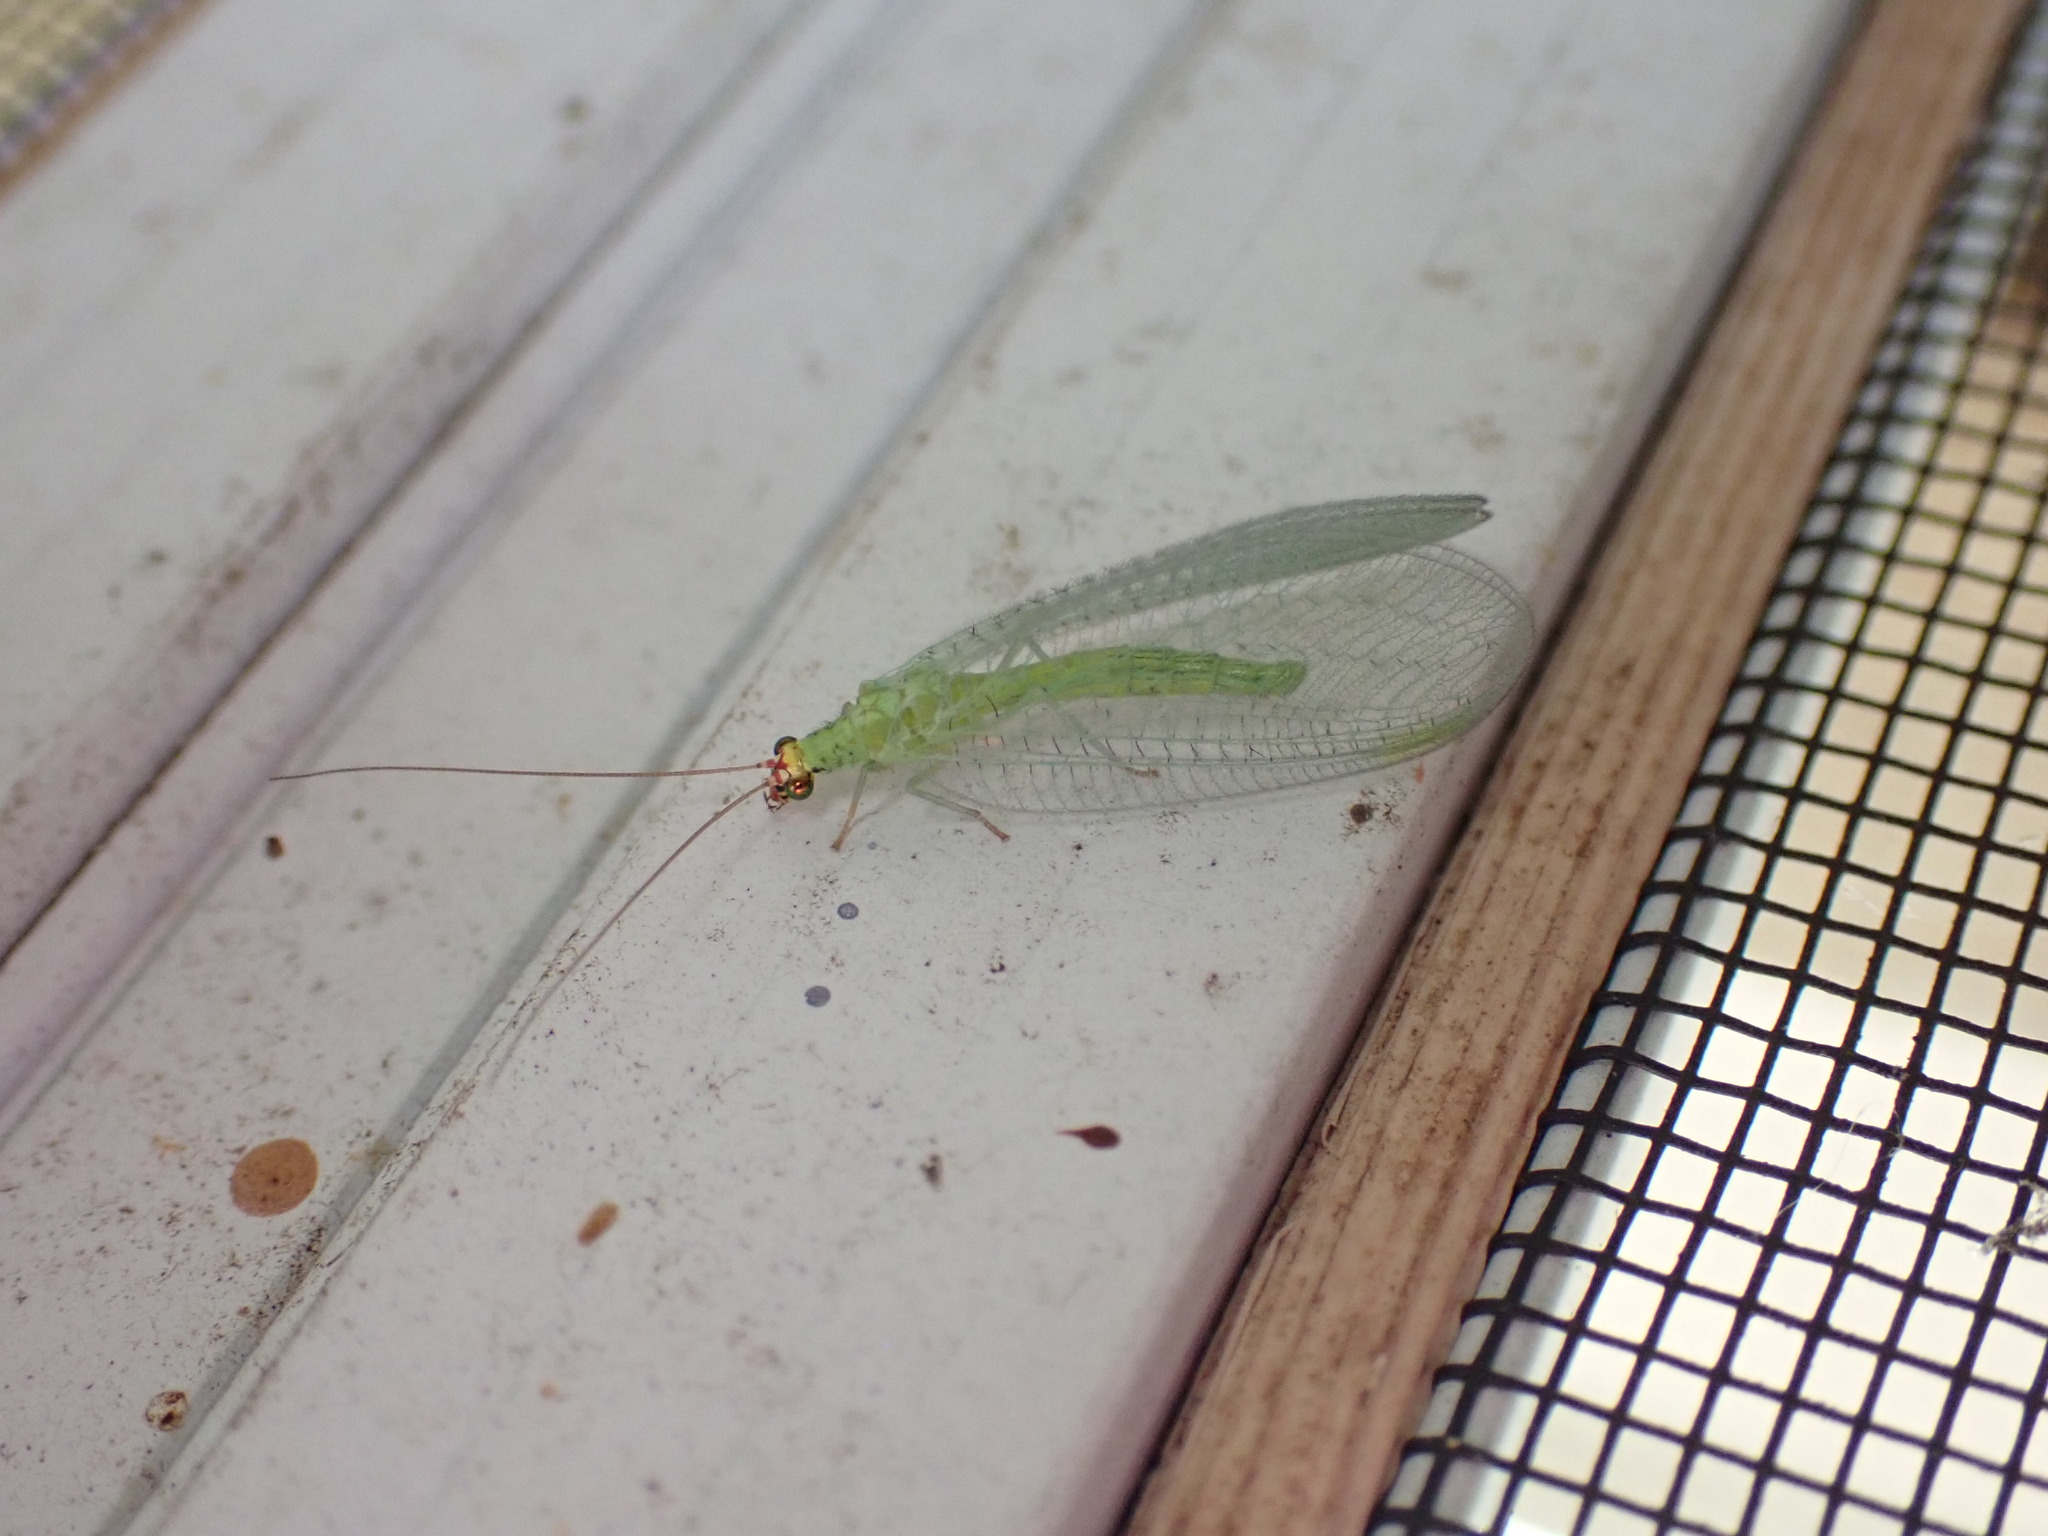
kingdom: Animalia
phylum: Arthropoda
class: Insecta
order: Neuroptera
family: Chrysopidae
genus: Chrysopa
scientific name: Chrysopa oculata
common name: Golden-eyed lacewing
